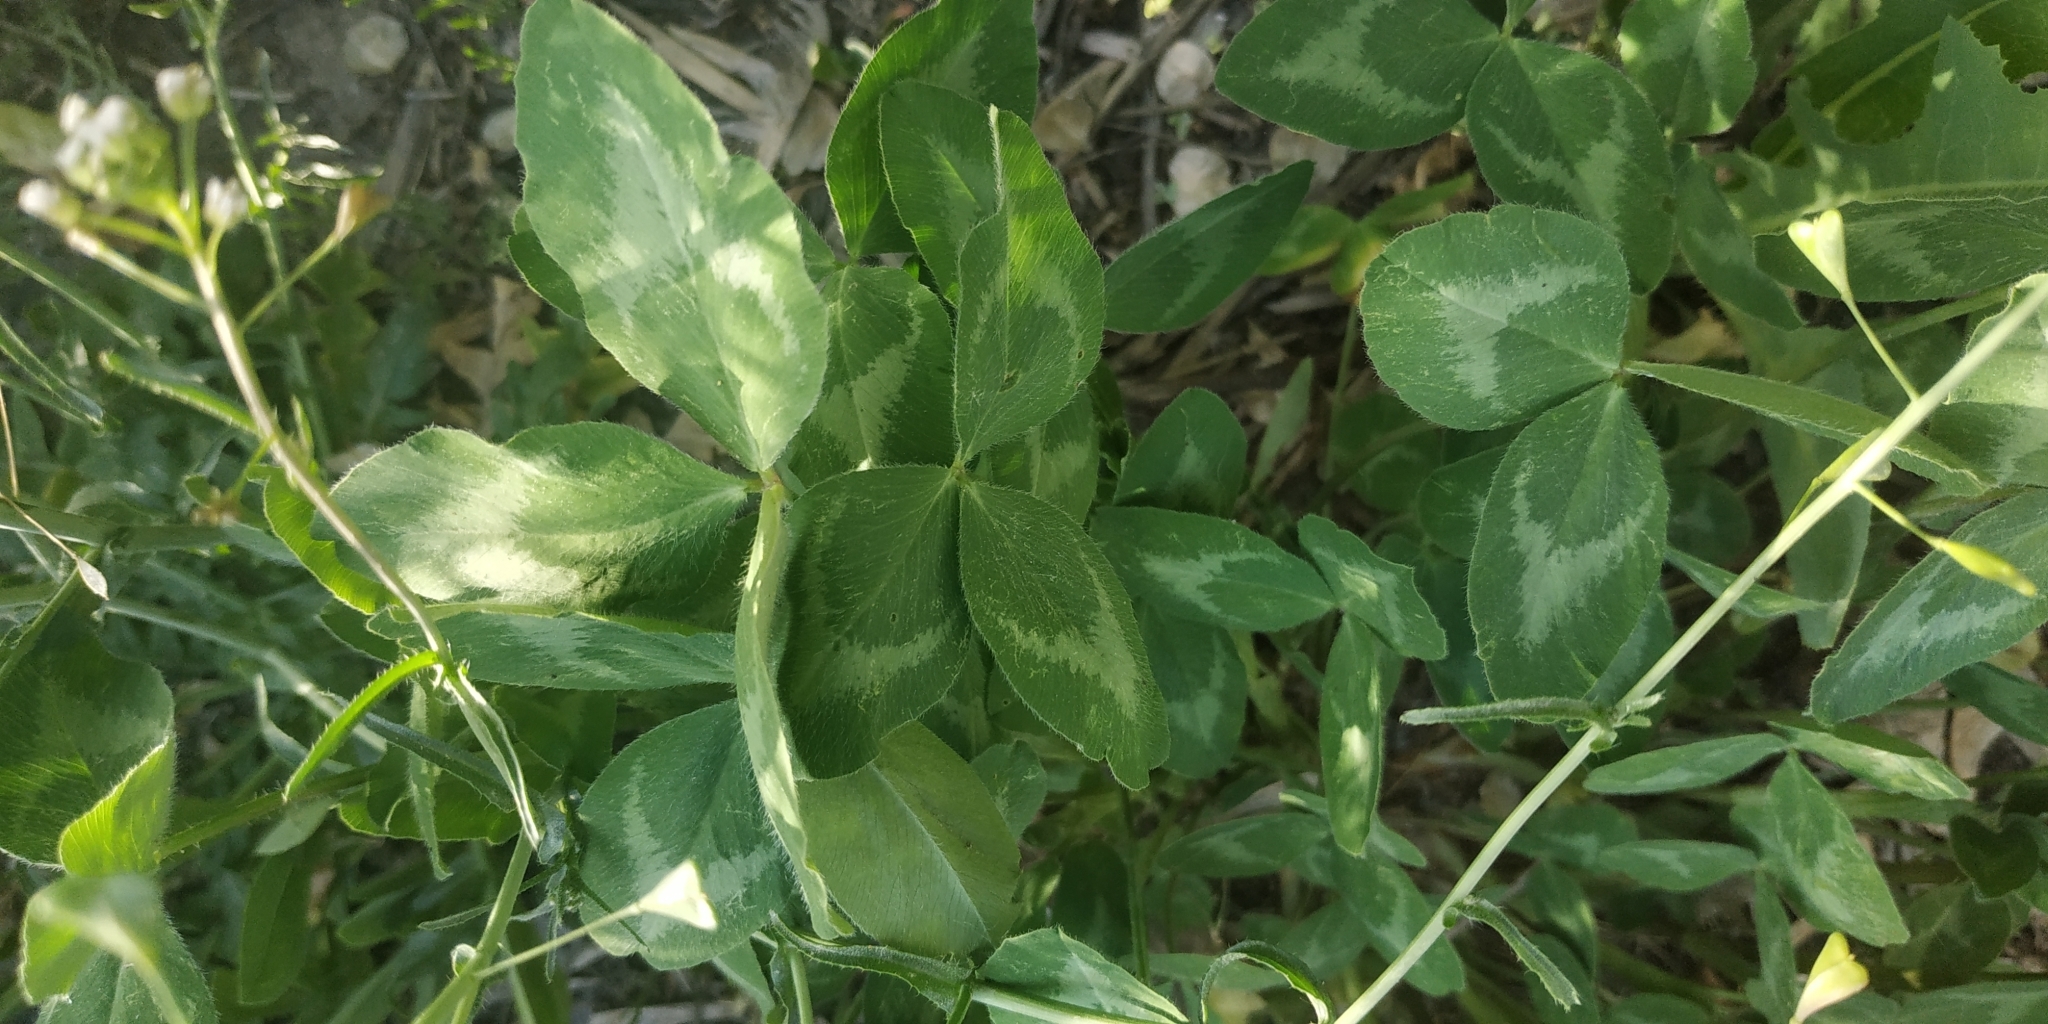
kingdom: Plantae
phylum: Tracheophyta
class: Magnoliopsida
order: Fabales
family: Fabaceae
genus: Trifolium
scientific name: Trifolium pratense
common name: Red clover
